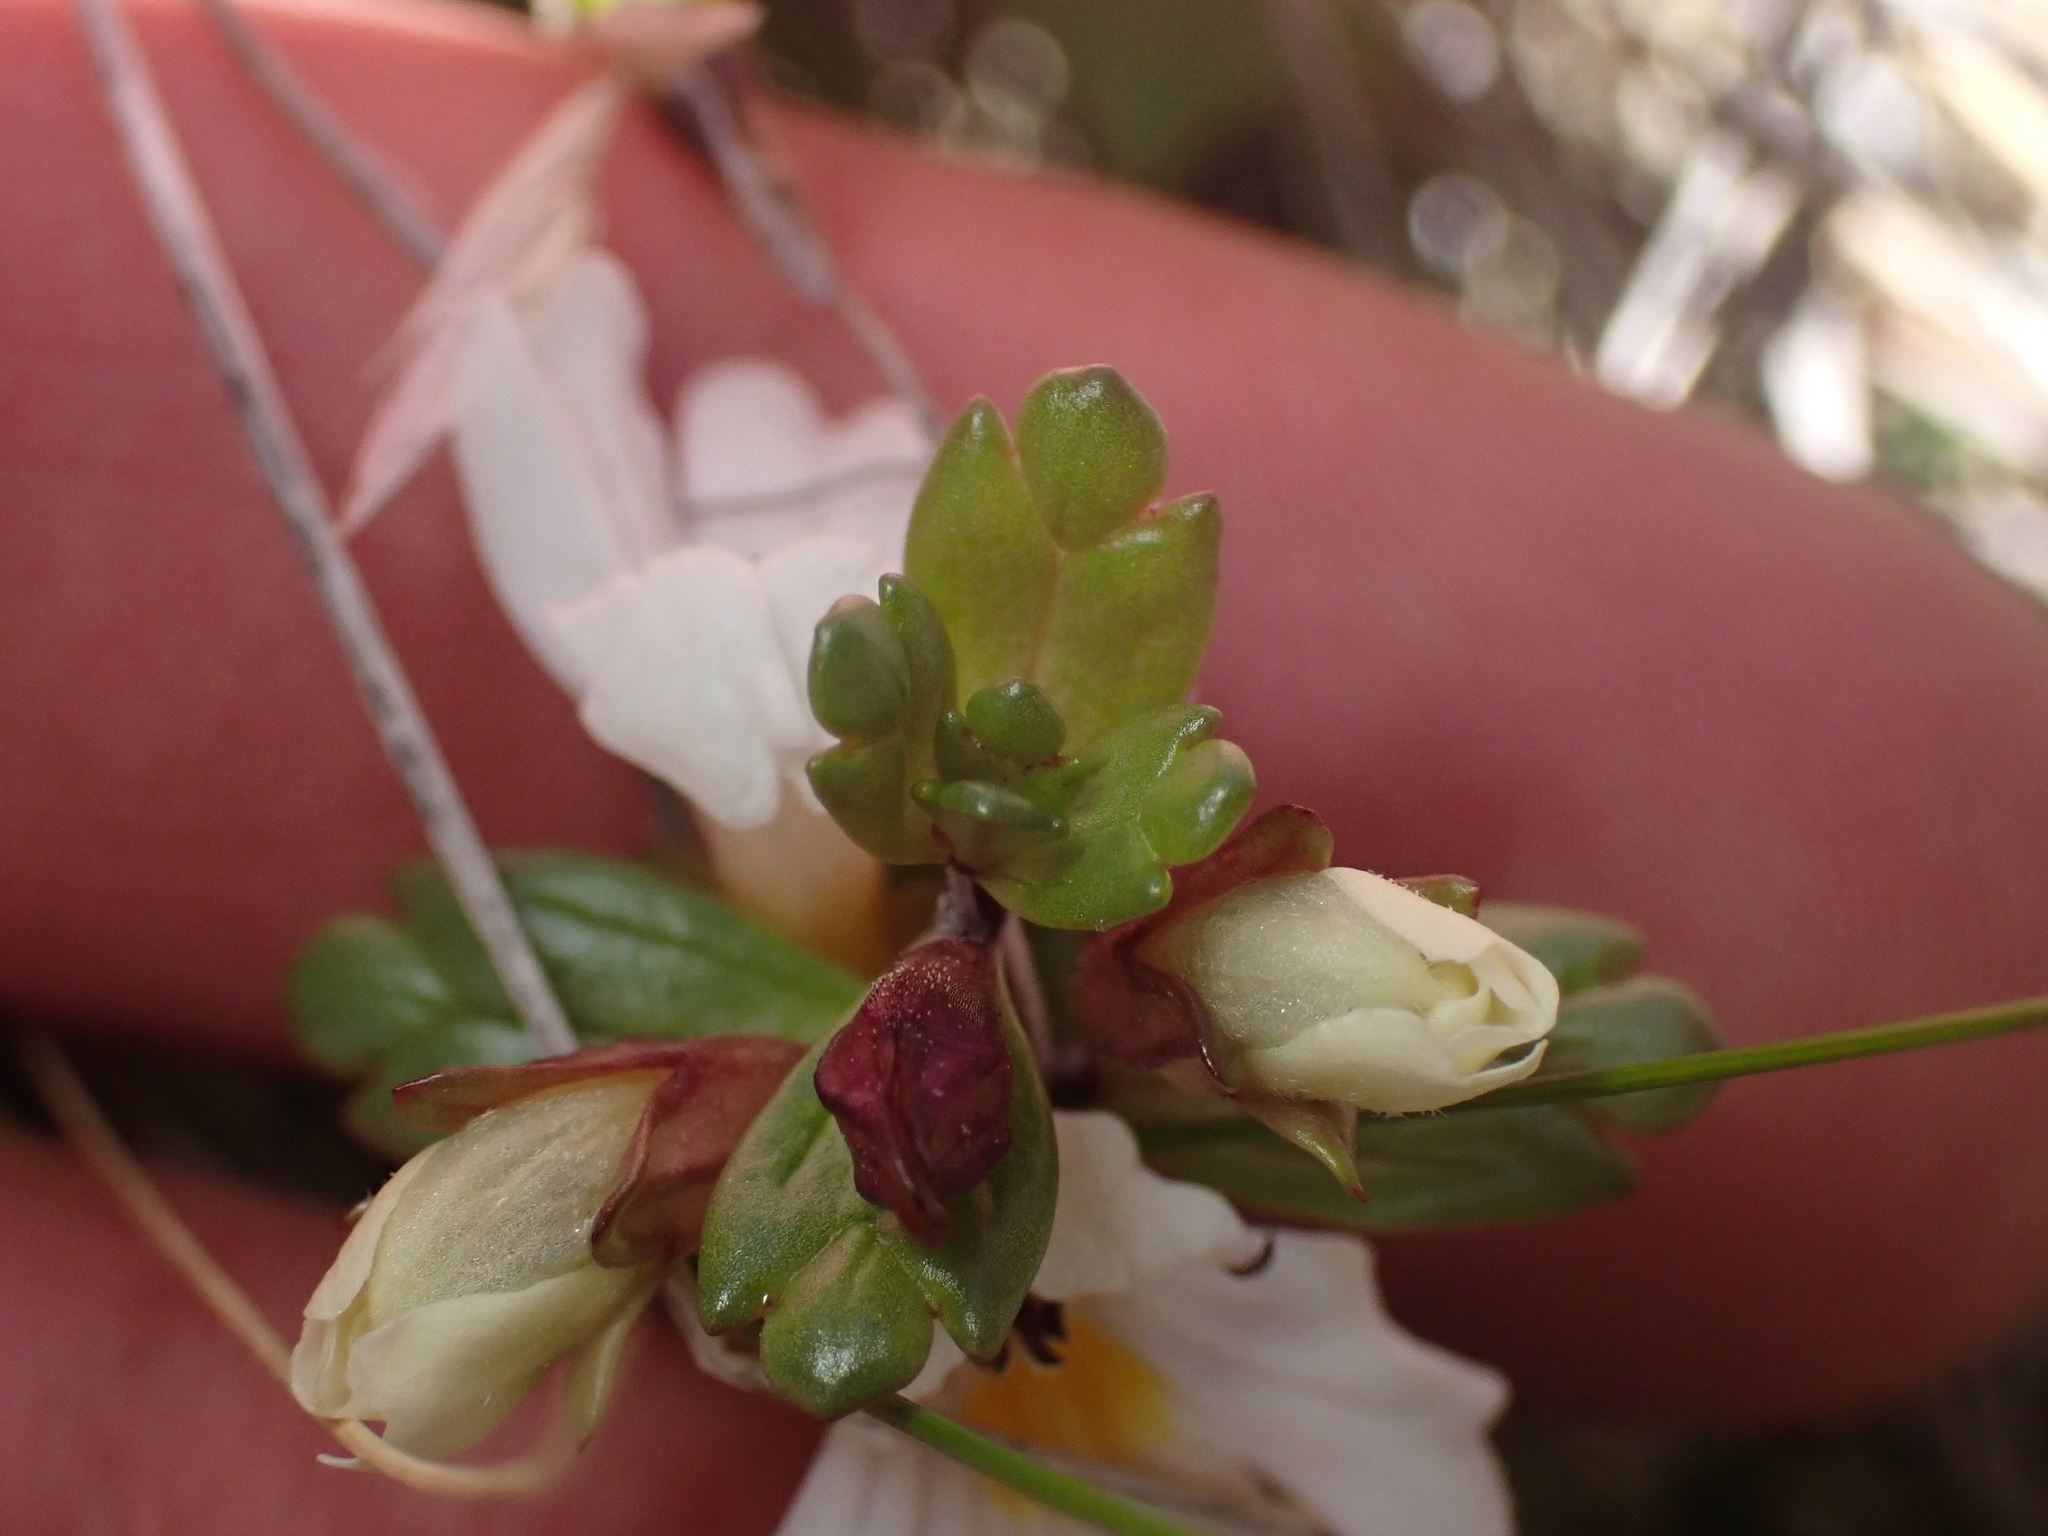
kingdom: Plantae
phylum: Tracheophyta
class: Magnoliopsida
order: Lamiales
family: Orobanchaceae
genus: Euphrasia
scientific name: Euphrasia laingii
